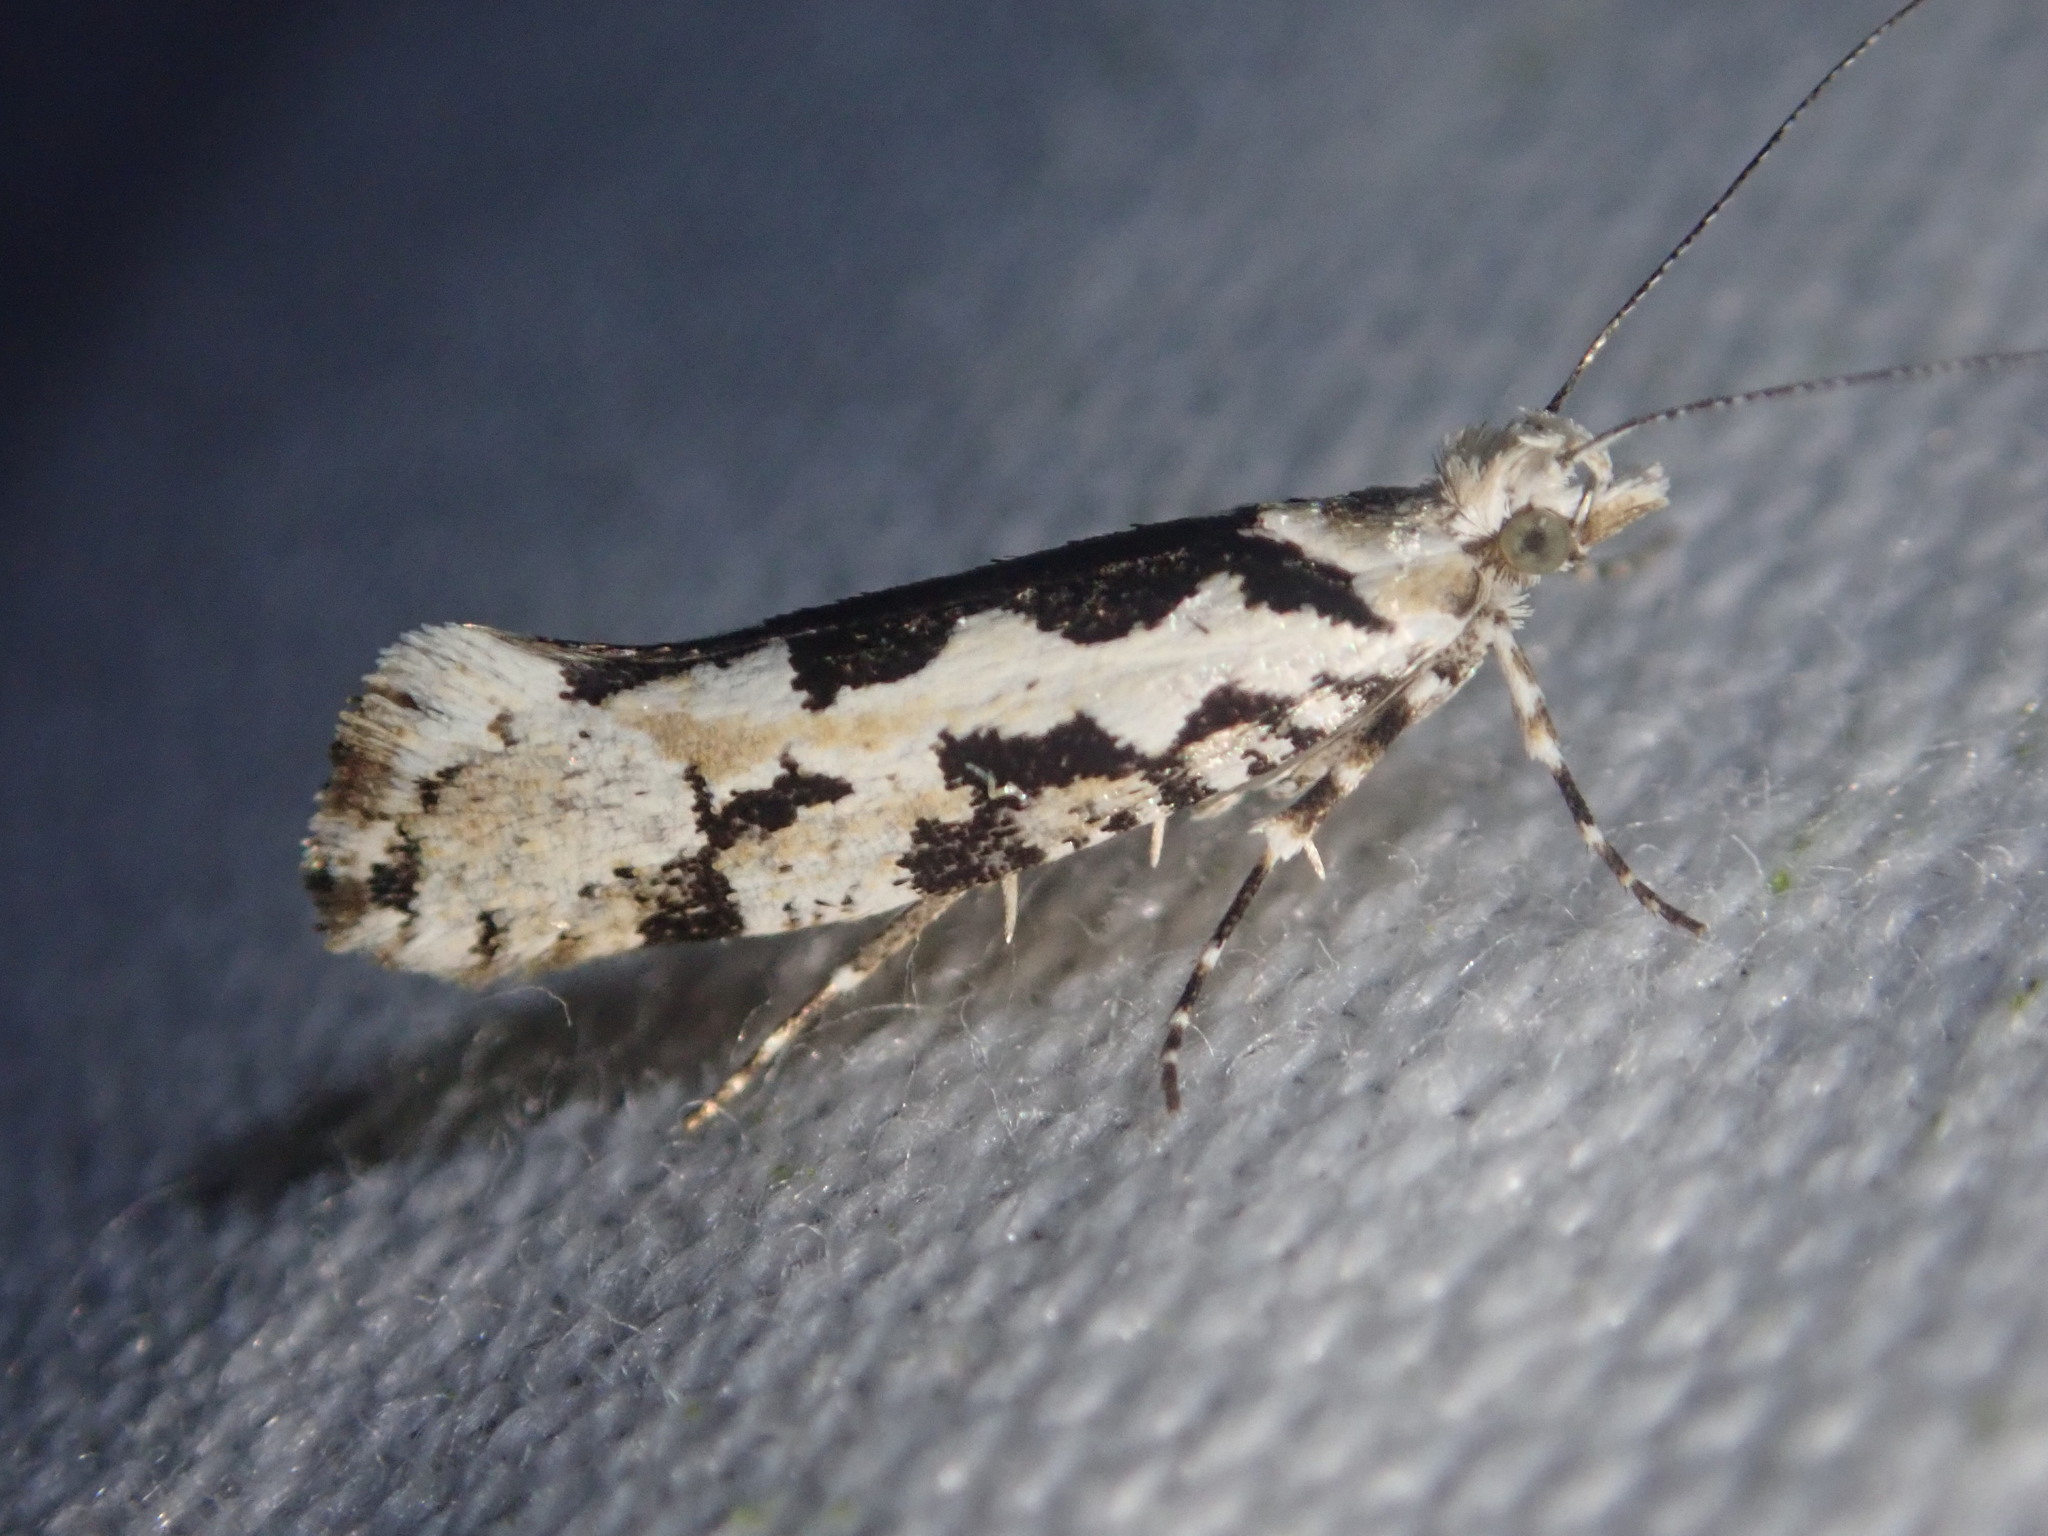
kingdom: Animalia
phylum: Arthropoda
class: Insecta
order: Lepidoptera
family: Plutellidae
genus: Ypsolophus
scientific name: Ypsolophus sequella
